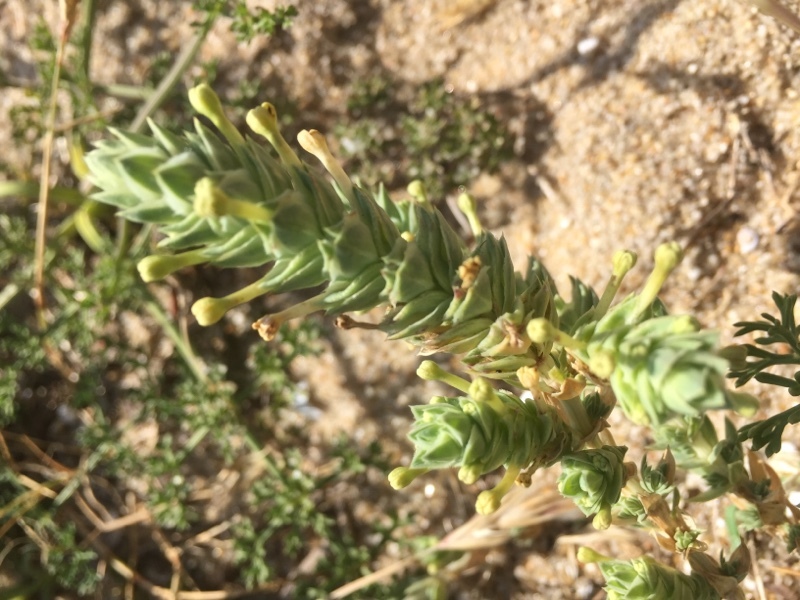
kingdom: Plantae
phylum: Tracheophyta
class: Magnoliopsida
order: Gentianales
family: Rubiaceae
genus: Crucianella
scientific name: Crucianella maritima
